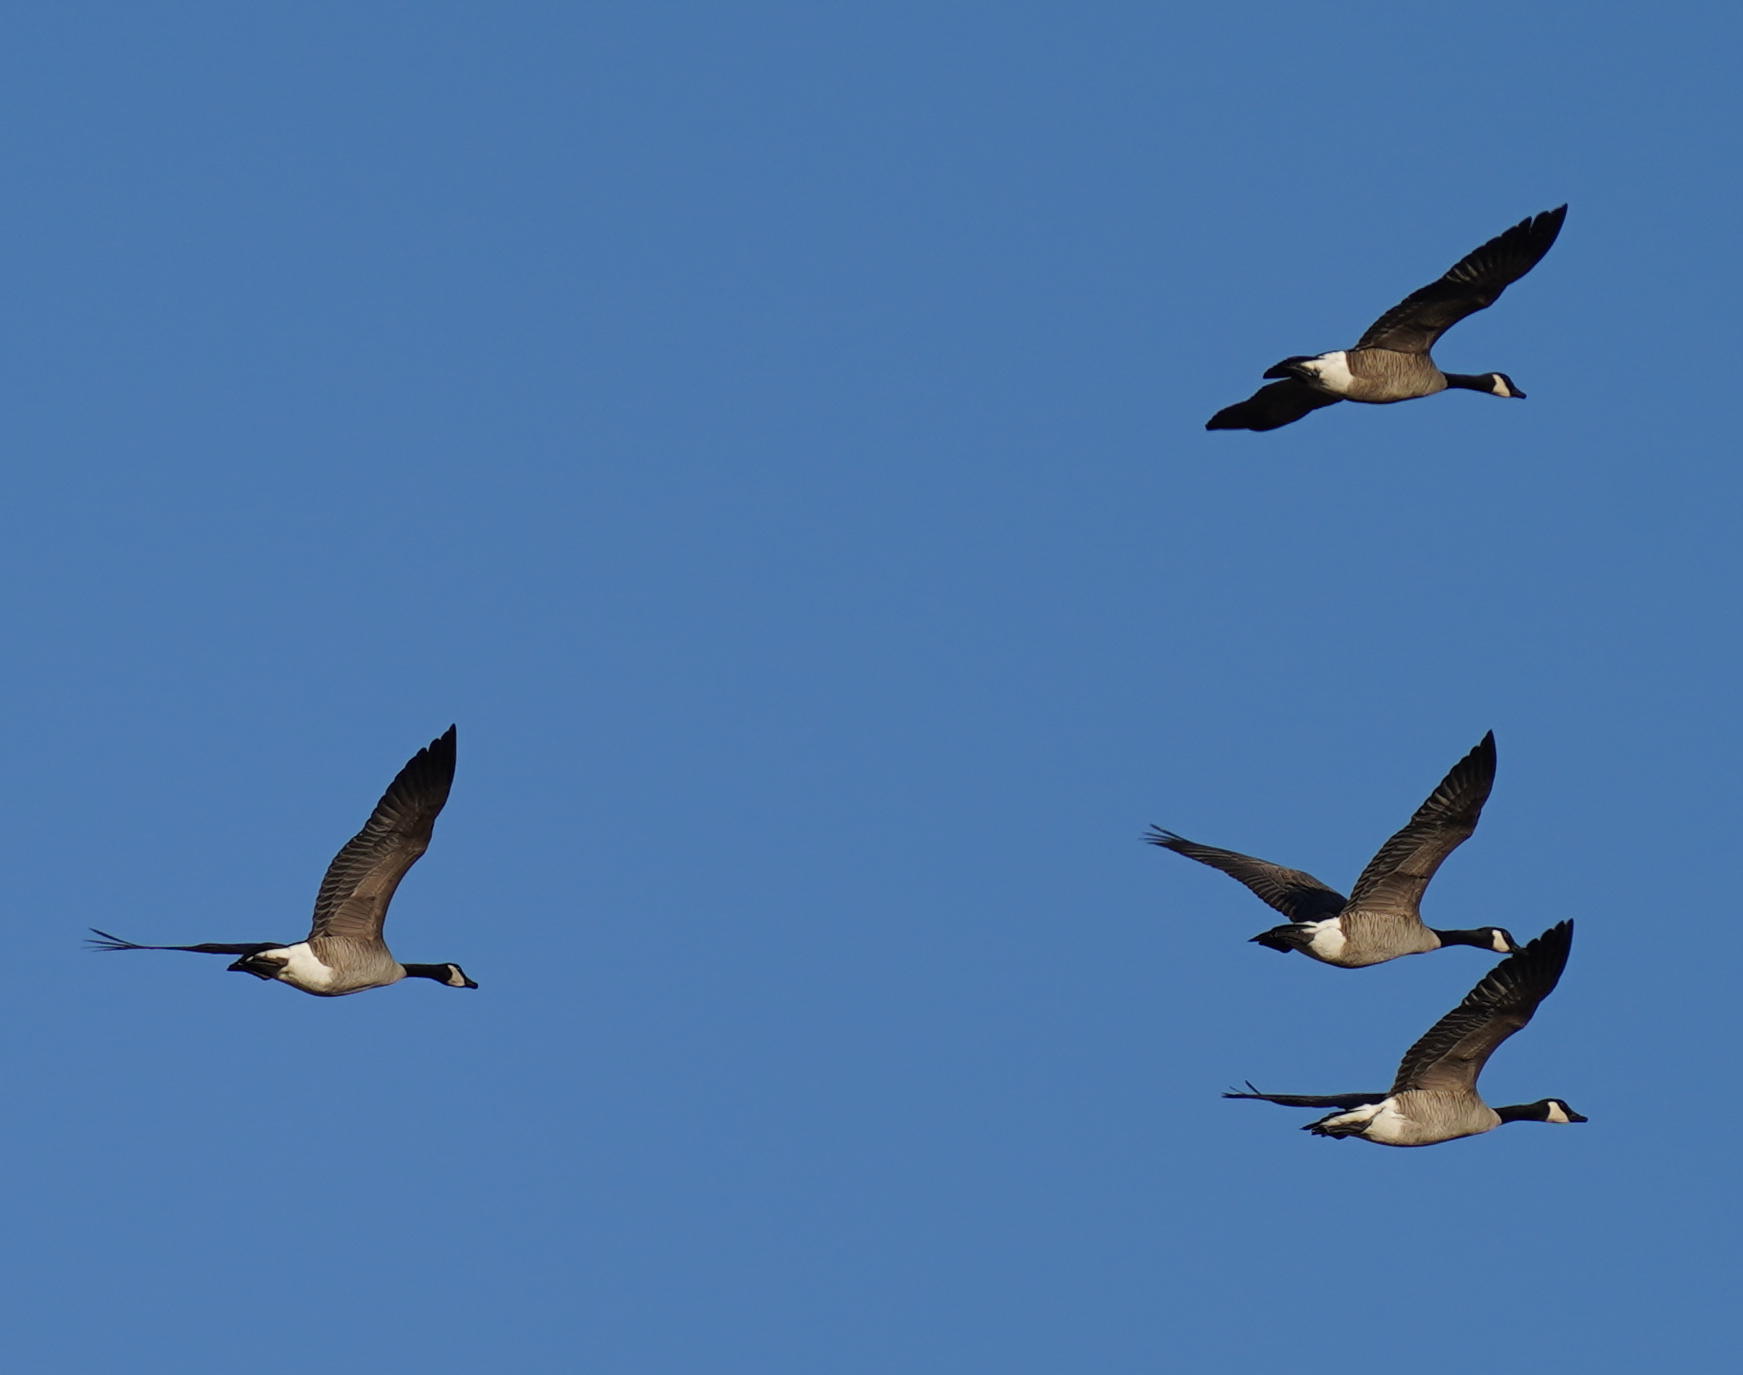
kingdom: Animalia
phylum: Chordata
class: Aves
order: Anseriformes
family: Anatidae
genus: Branta
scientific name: Branta canadensis
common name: Canada goose
